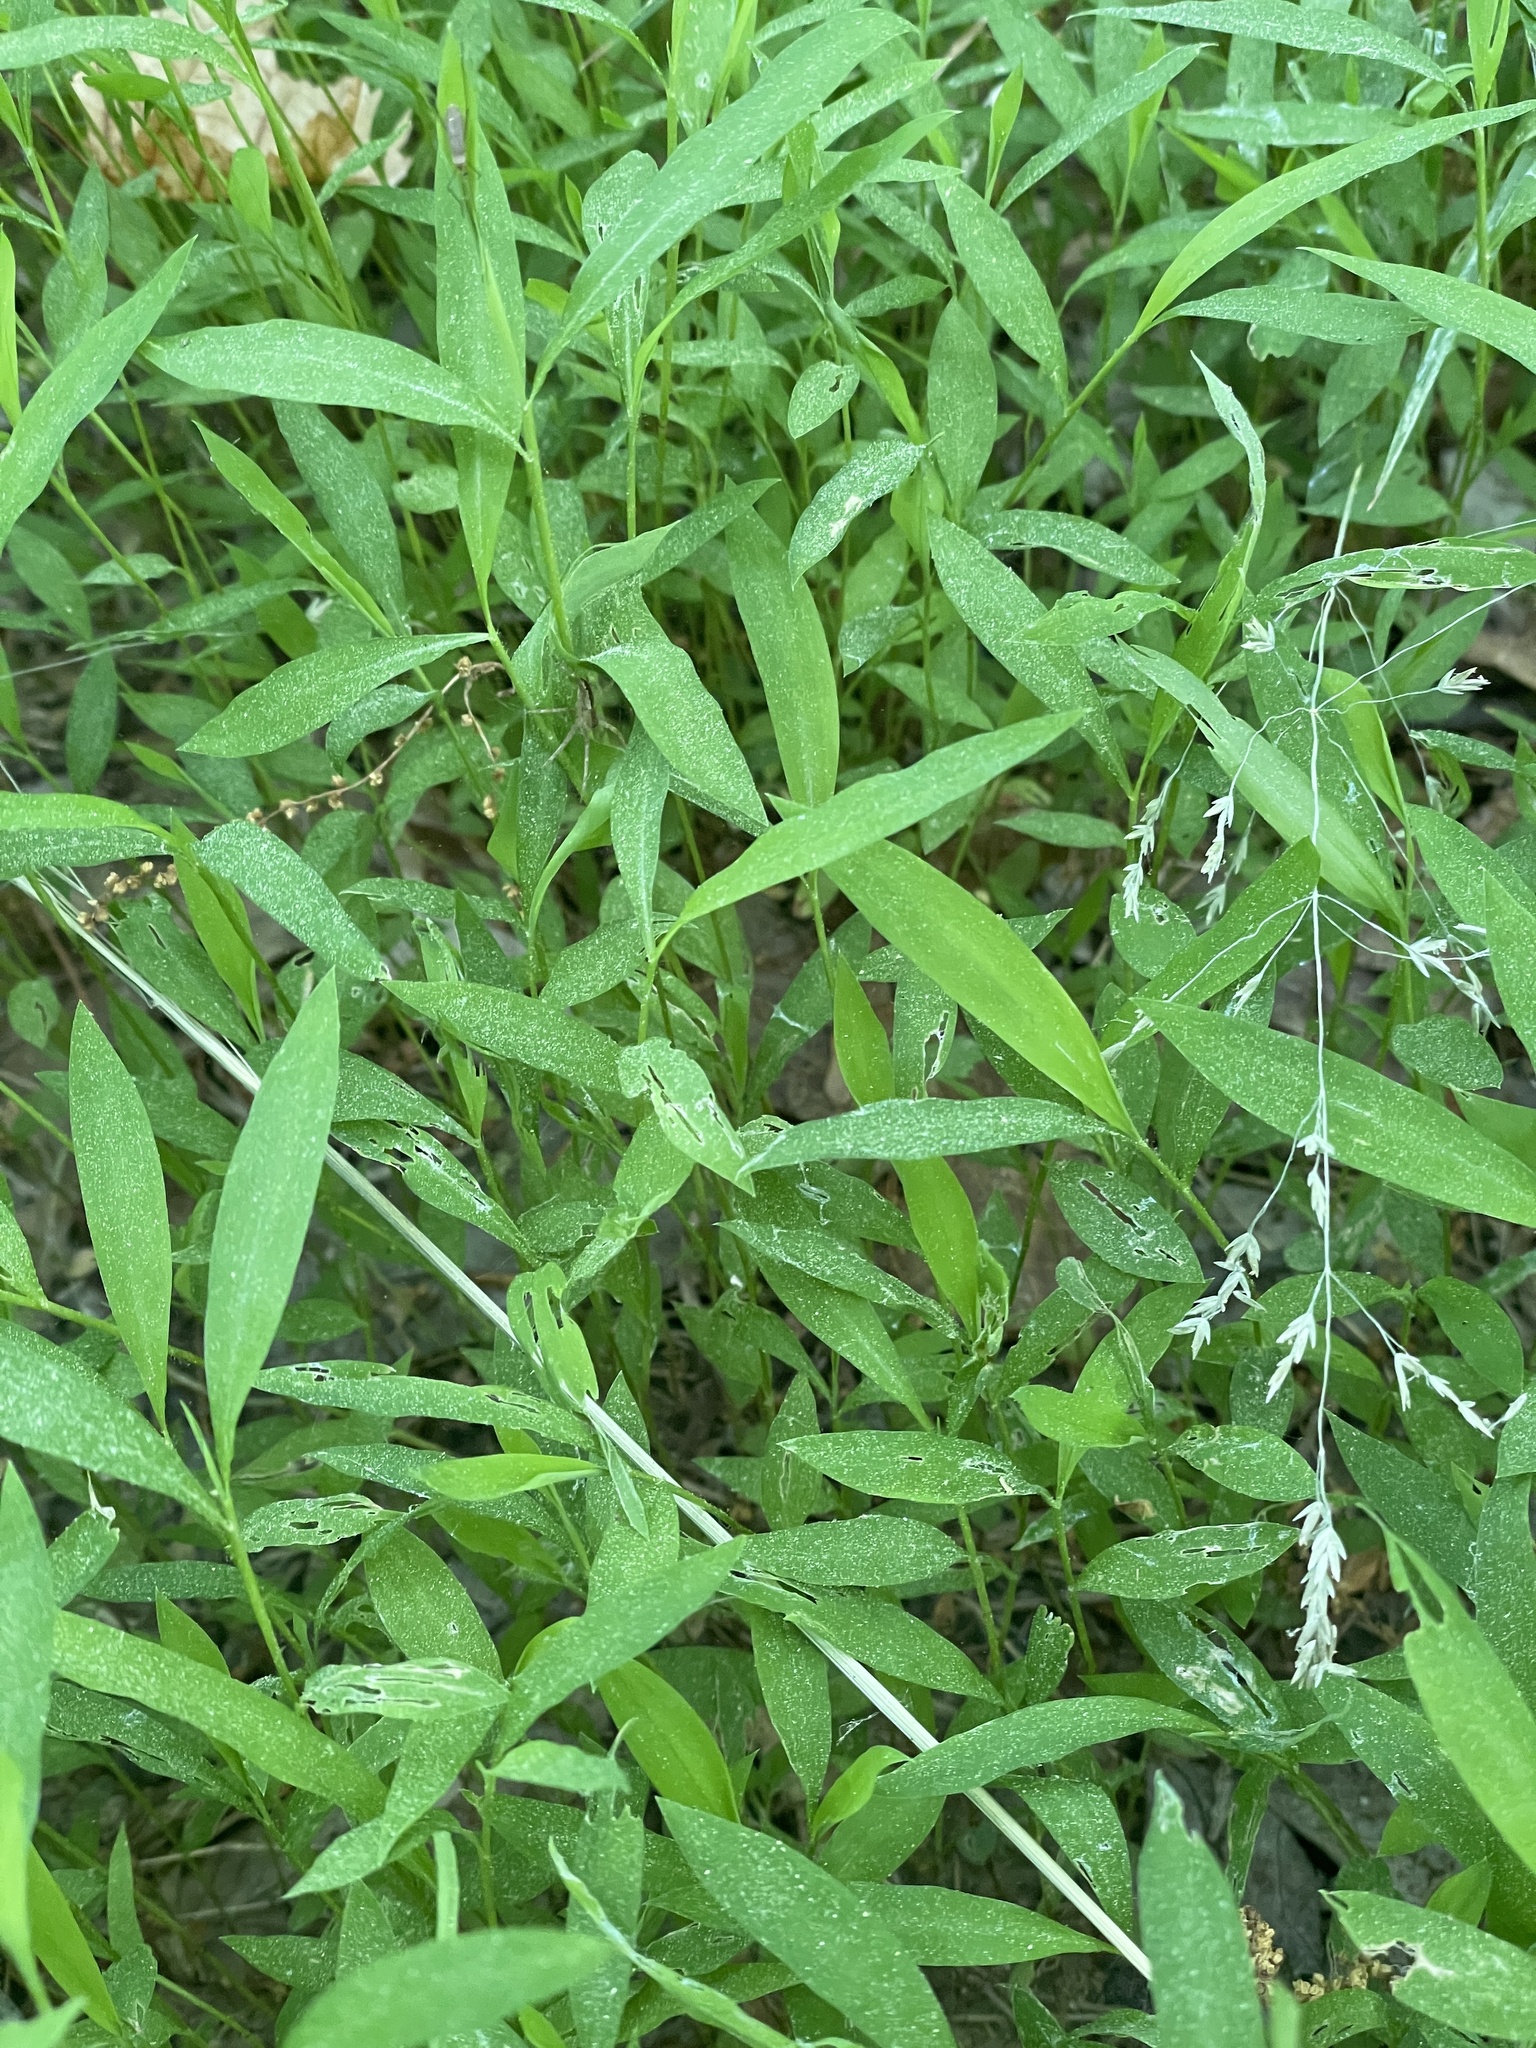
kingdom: Plantae
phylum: Tracheophyta
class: Liliopsida
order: Poales
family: Poaceae
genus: Microstegium
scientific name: Microstegium vimineum
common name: Japanese stiltgrass
